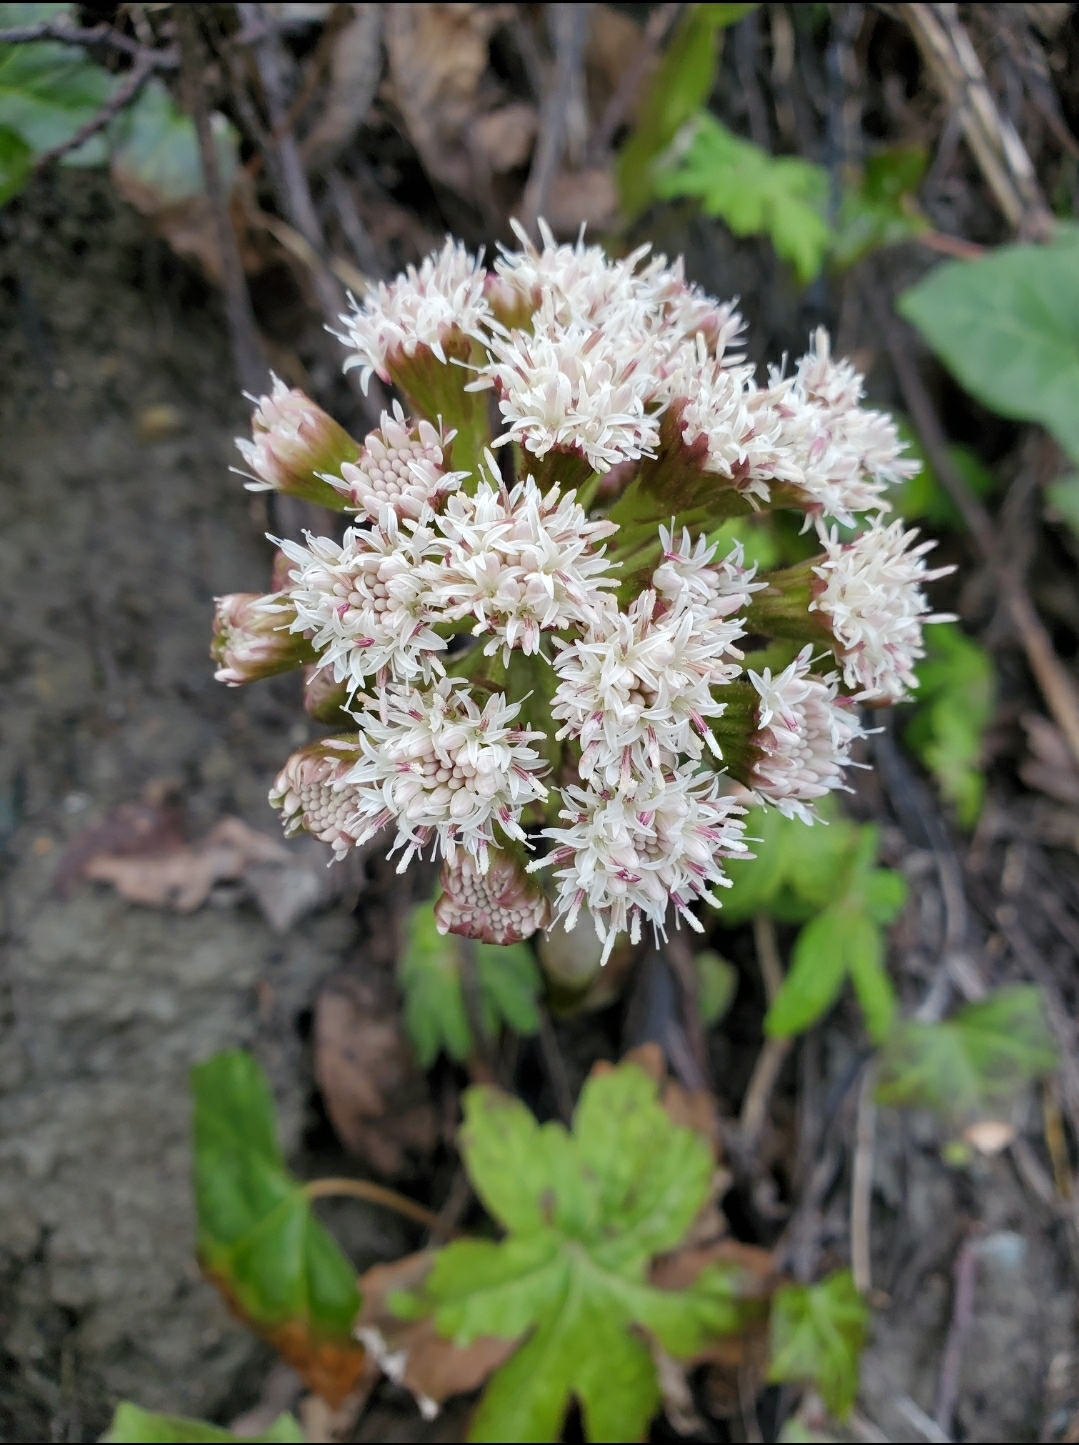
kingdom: Plantae
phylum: Tracheophyta
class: Magnoliopsida
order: Asterales
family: Asteraceae
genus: Petasites
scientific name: Petasites frigidus
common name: Arctic butterbur
